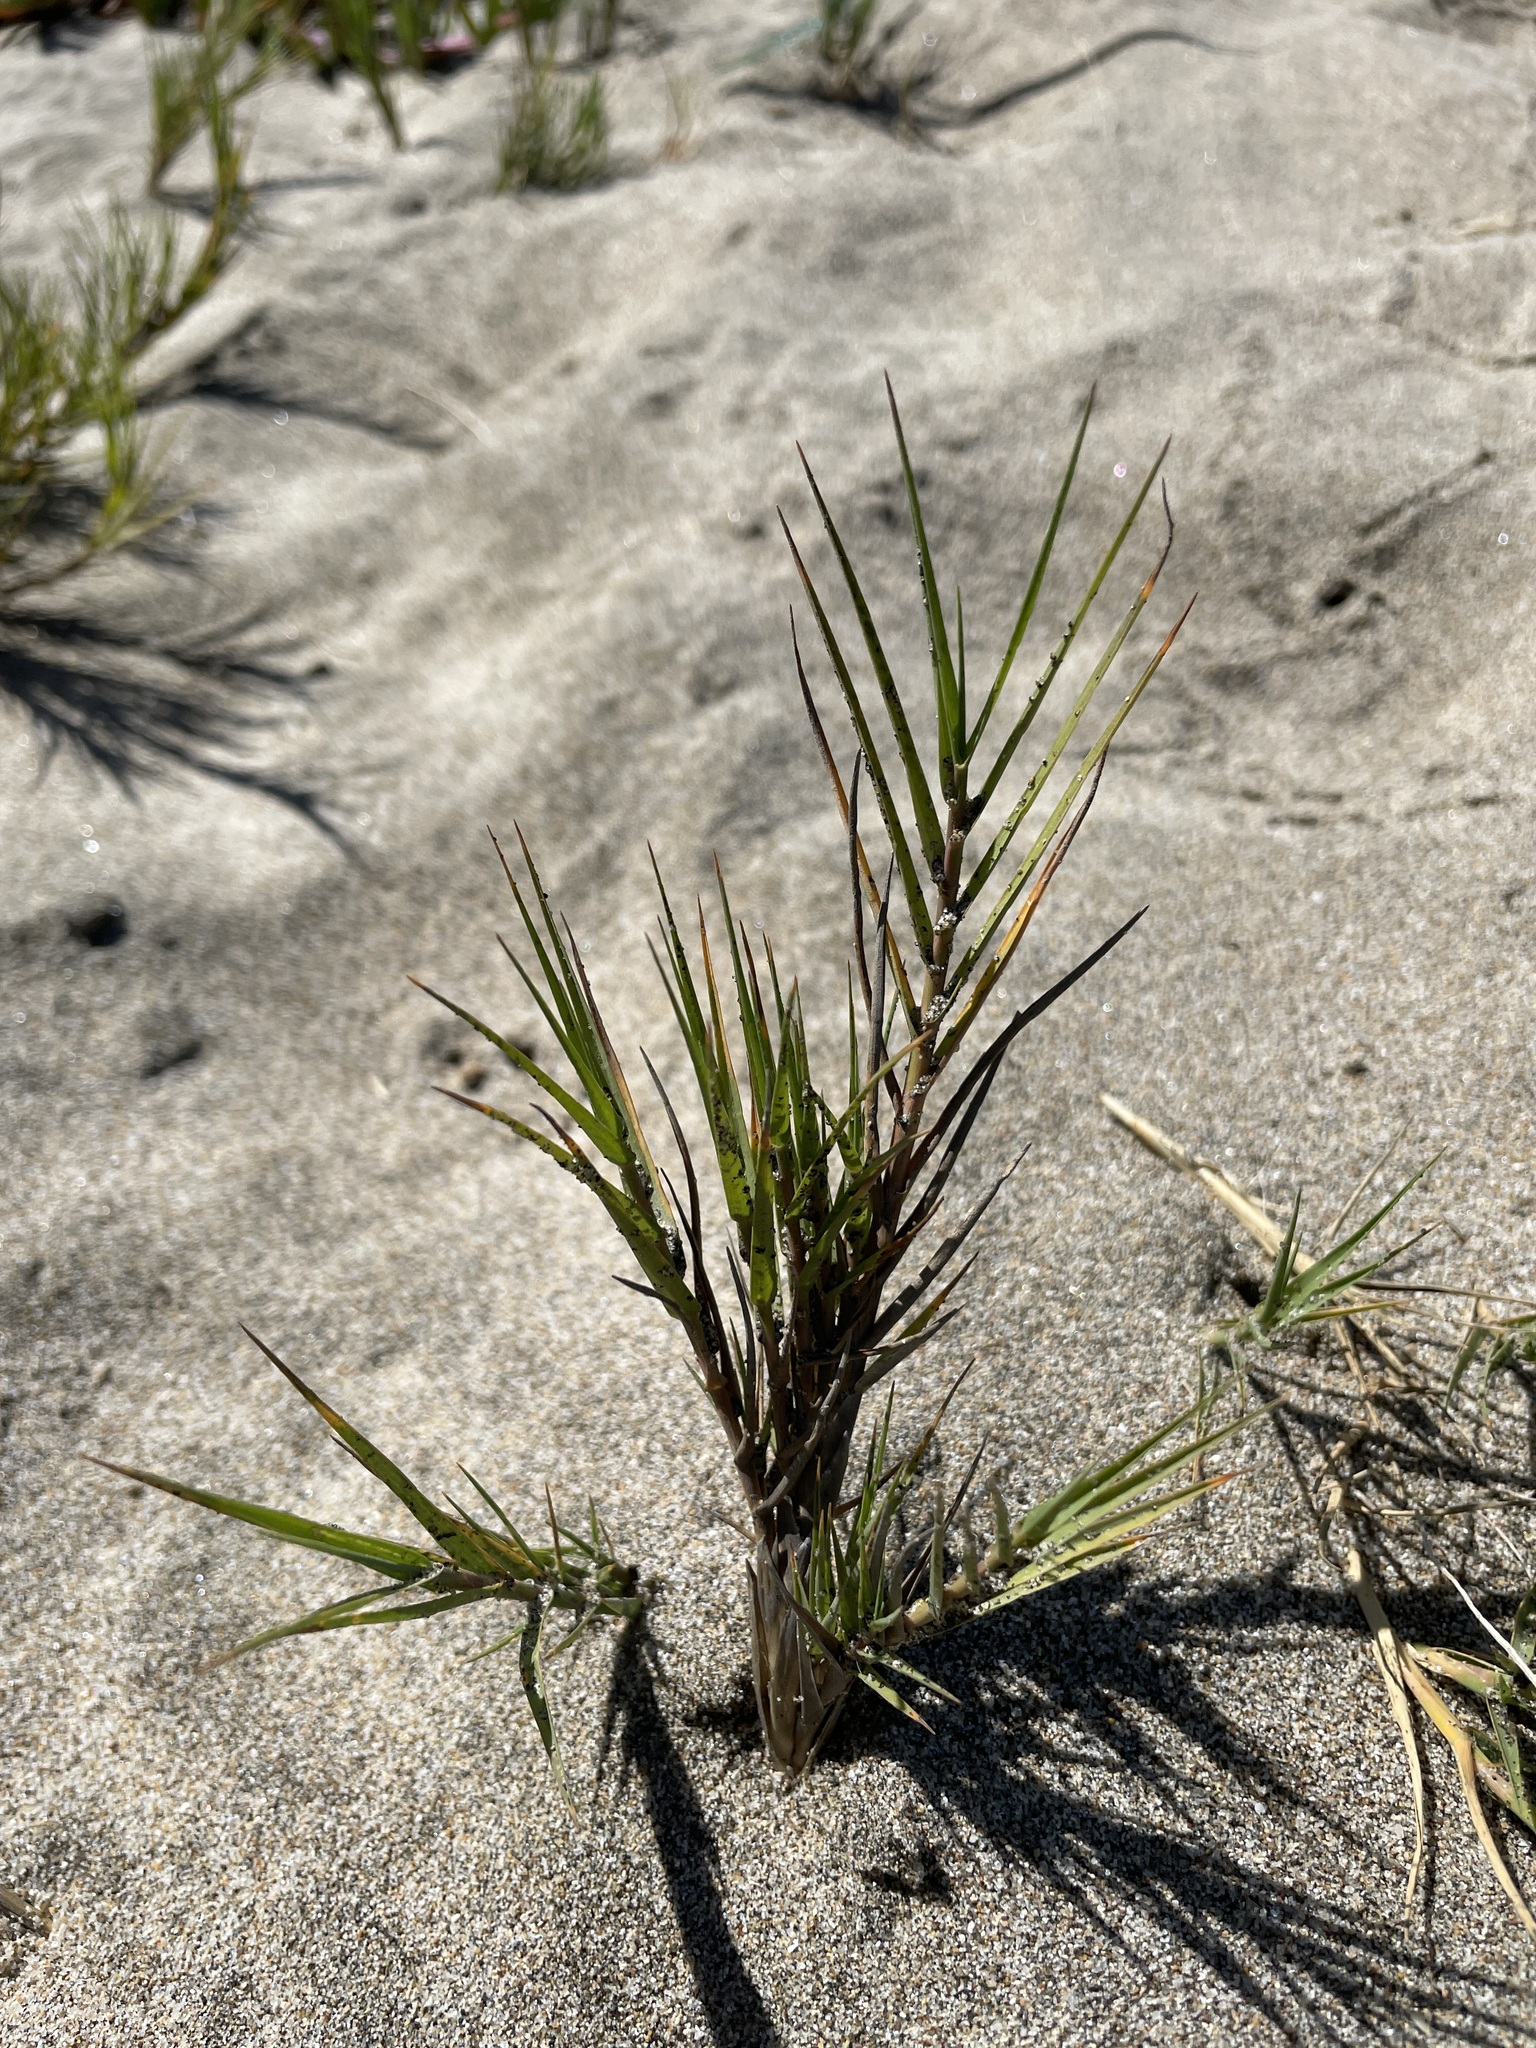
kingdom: Plantae
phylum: Tracheophyta
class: Liliopsida
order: Poales
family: Poaceae
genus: Distichlis
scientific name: Distichlis spicata
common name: Saltgrass
